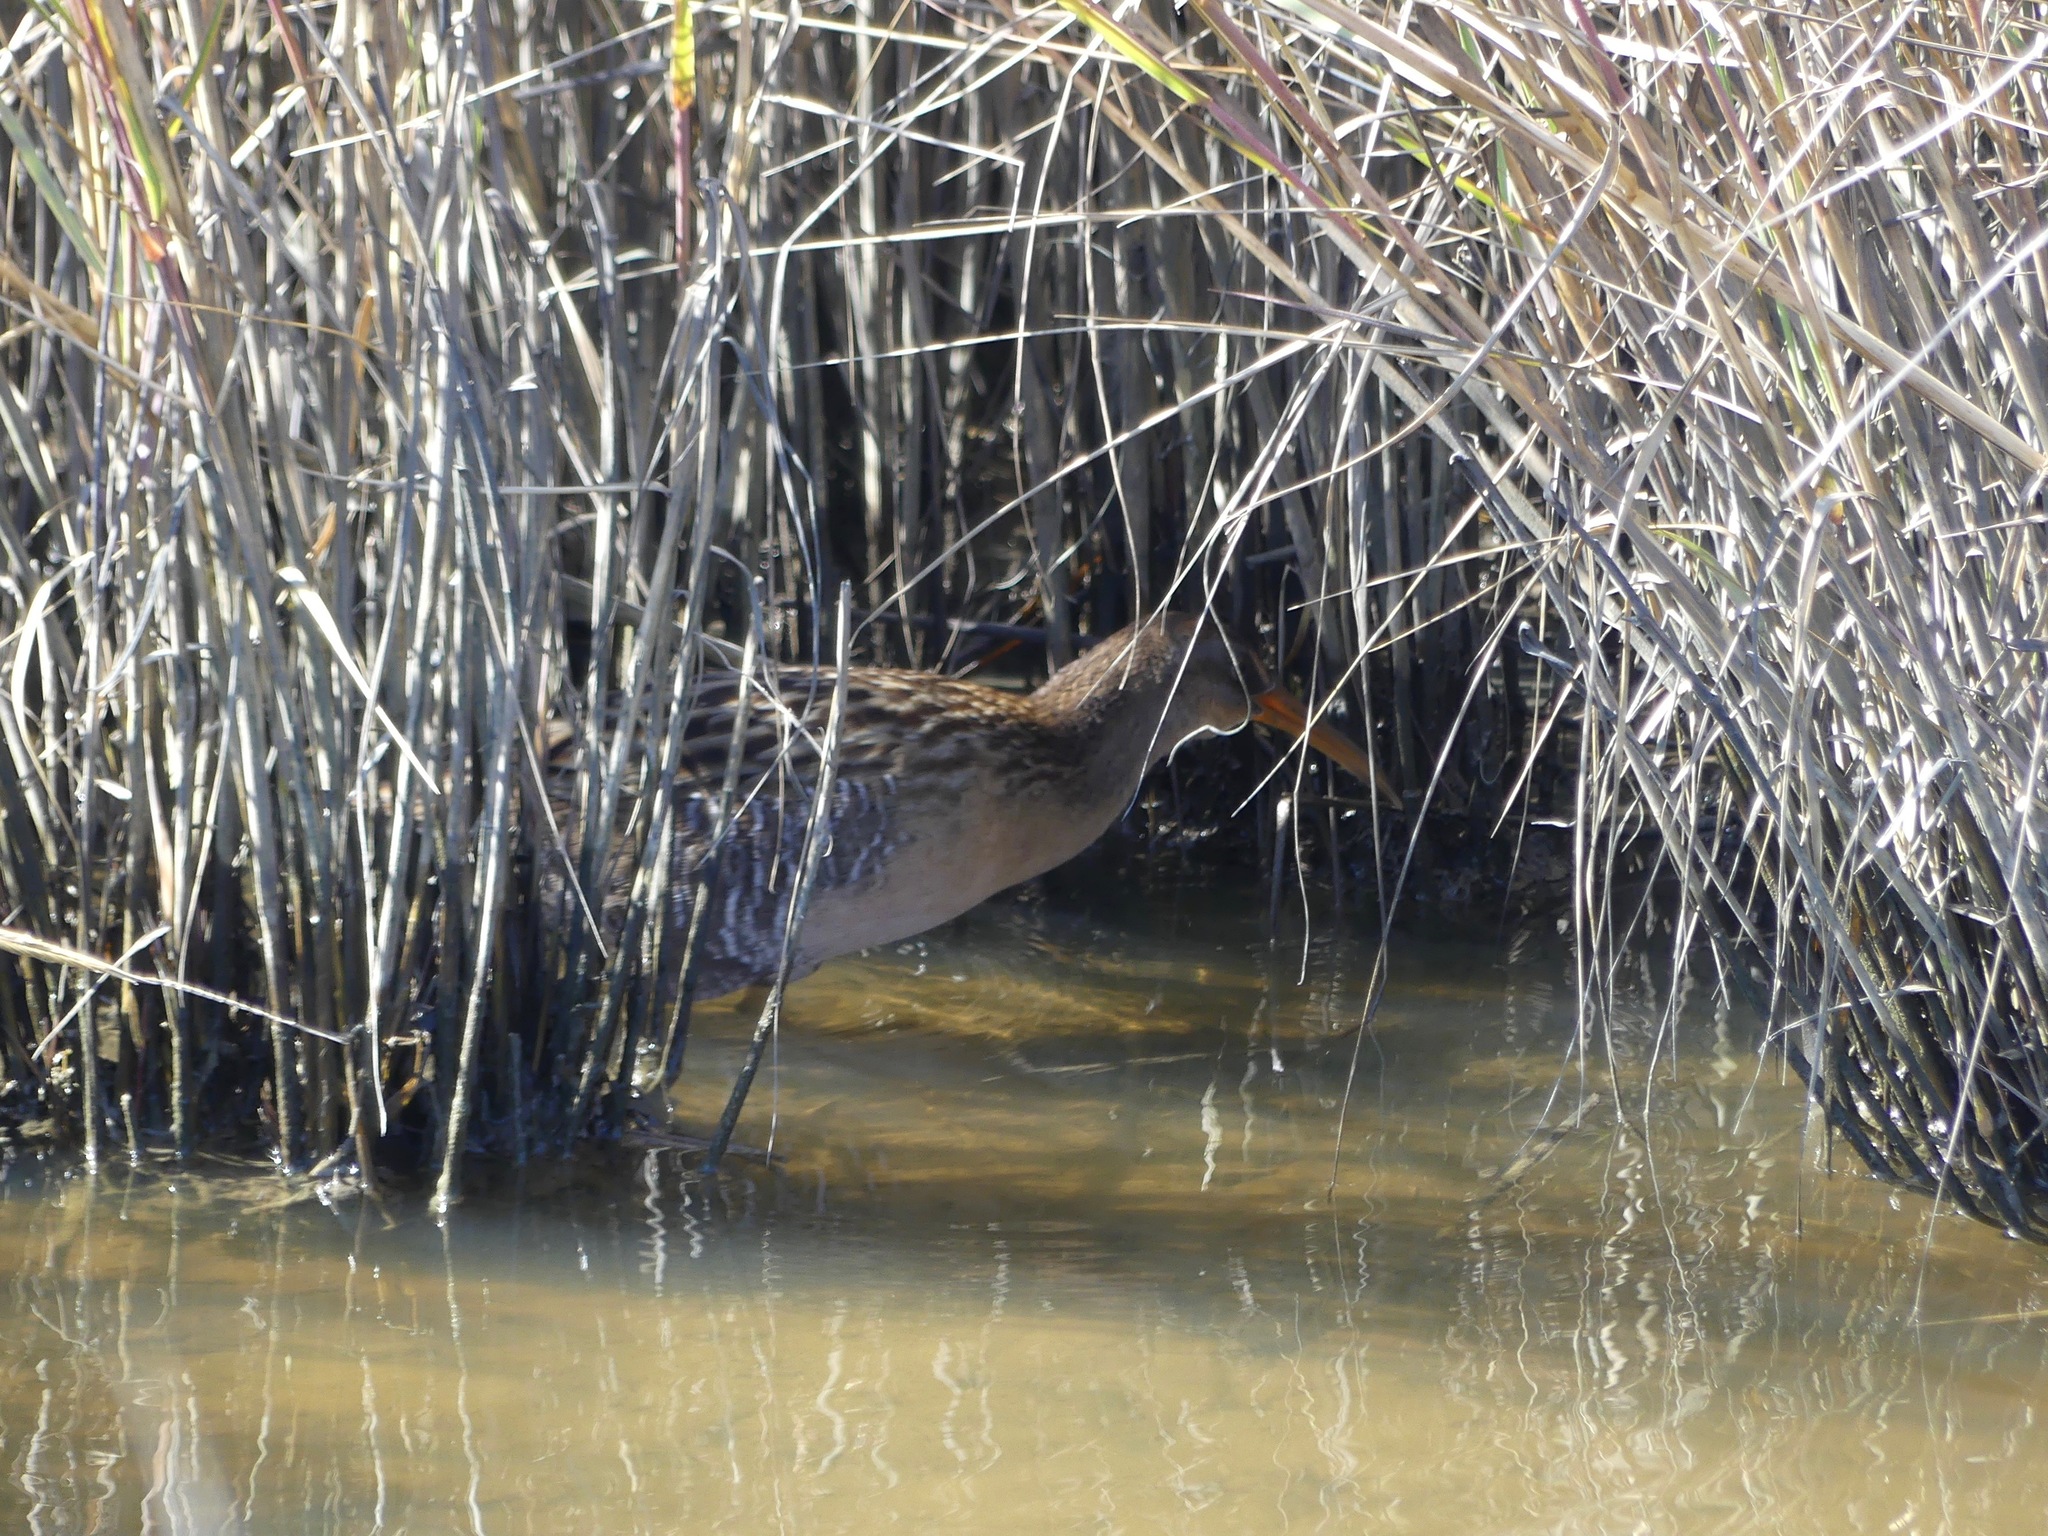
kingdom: Animalia
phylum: Chordata
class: Aves
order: Gruiformes
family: Rallidae
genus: Rallus
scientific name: Rallus crepitans
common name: Clapper rail
